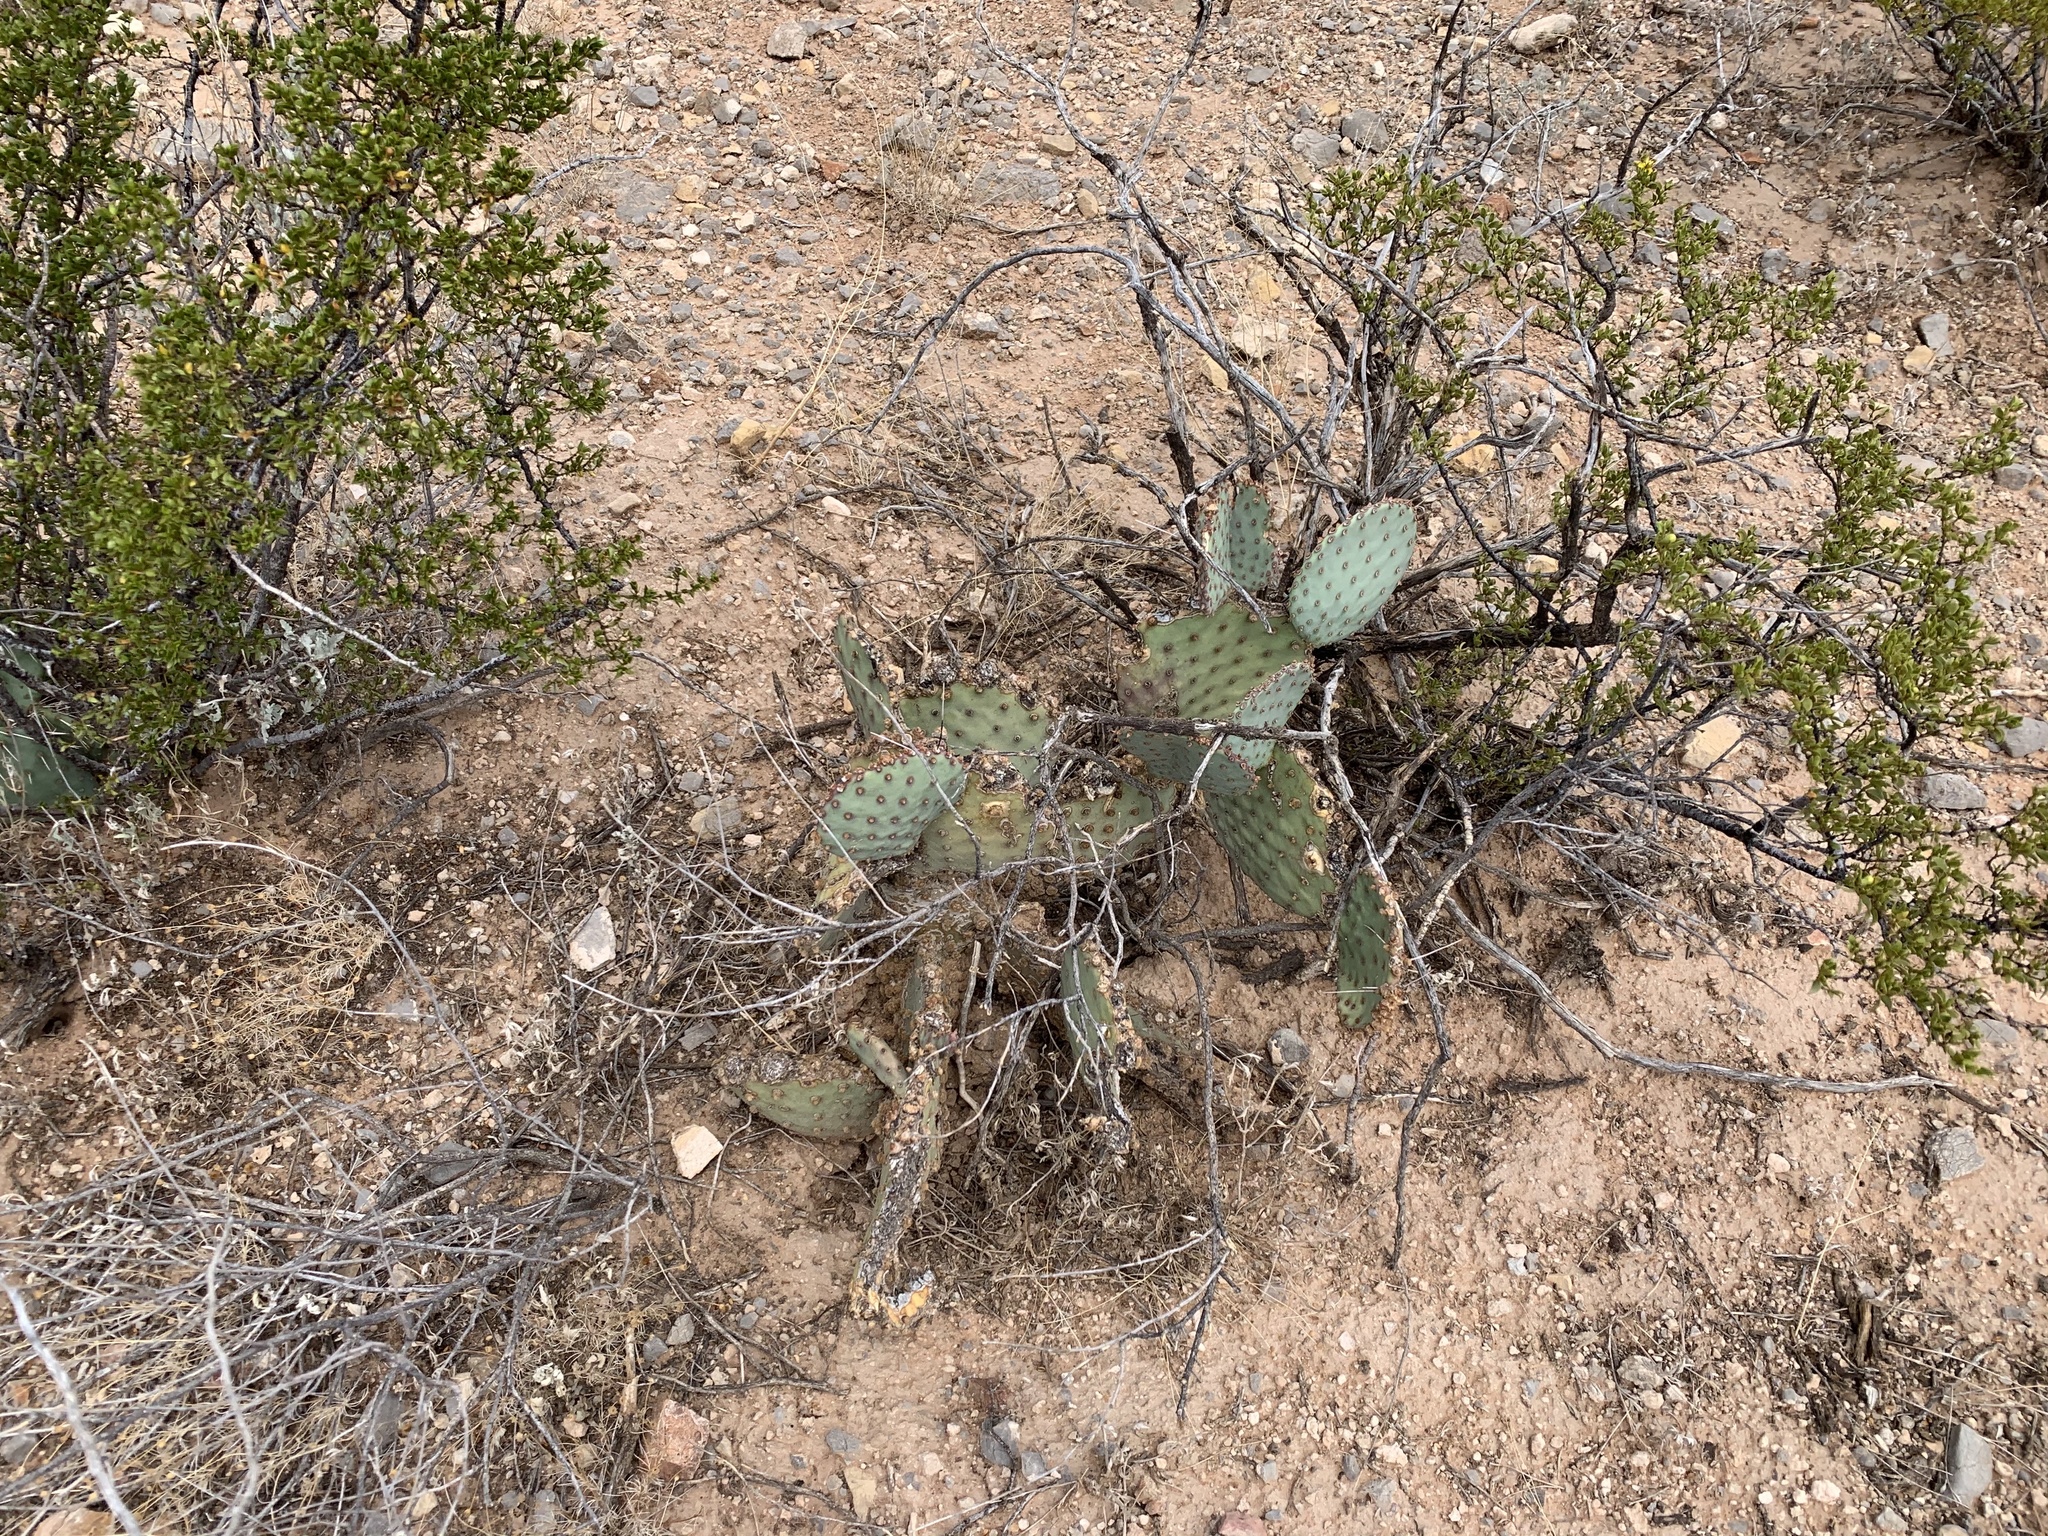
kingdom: Plantae
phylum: Tracheophyta
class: Magnoliopsida
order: Caryophyllales
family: Cactaceae
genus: Opuntia
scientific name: Opuntia macrocentra
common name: Purple prickly-pear
